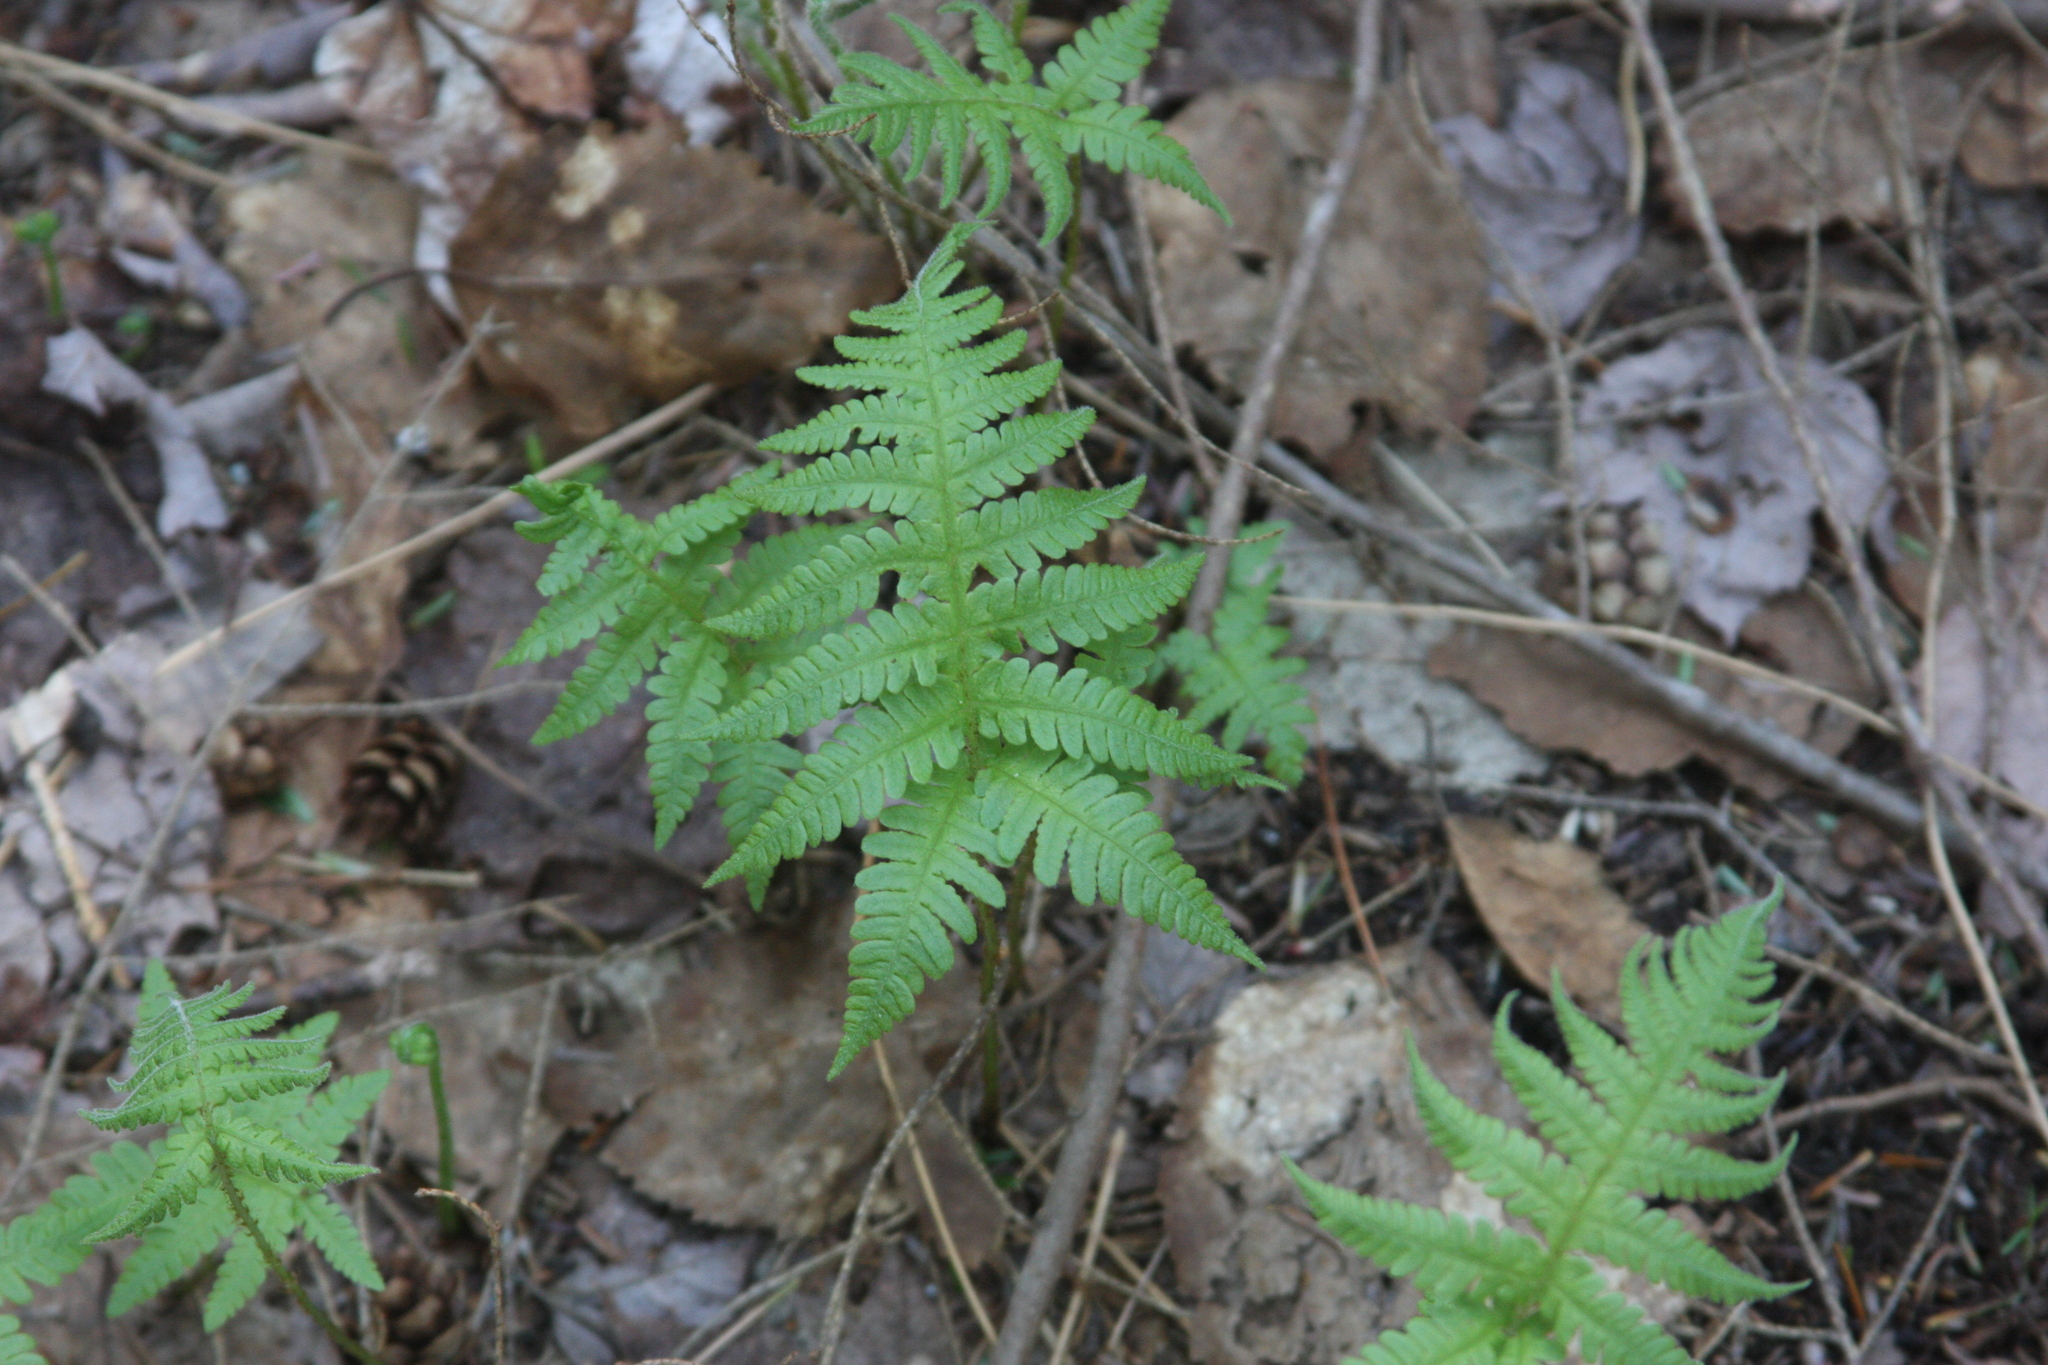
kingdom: Plantae
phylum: Tracheophyta
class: Polypodiopsida
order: Polypodiales
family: Thelypteridaceae
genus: Phegopteris
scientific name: Phegopteris connectilis
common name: Beech fern
